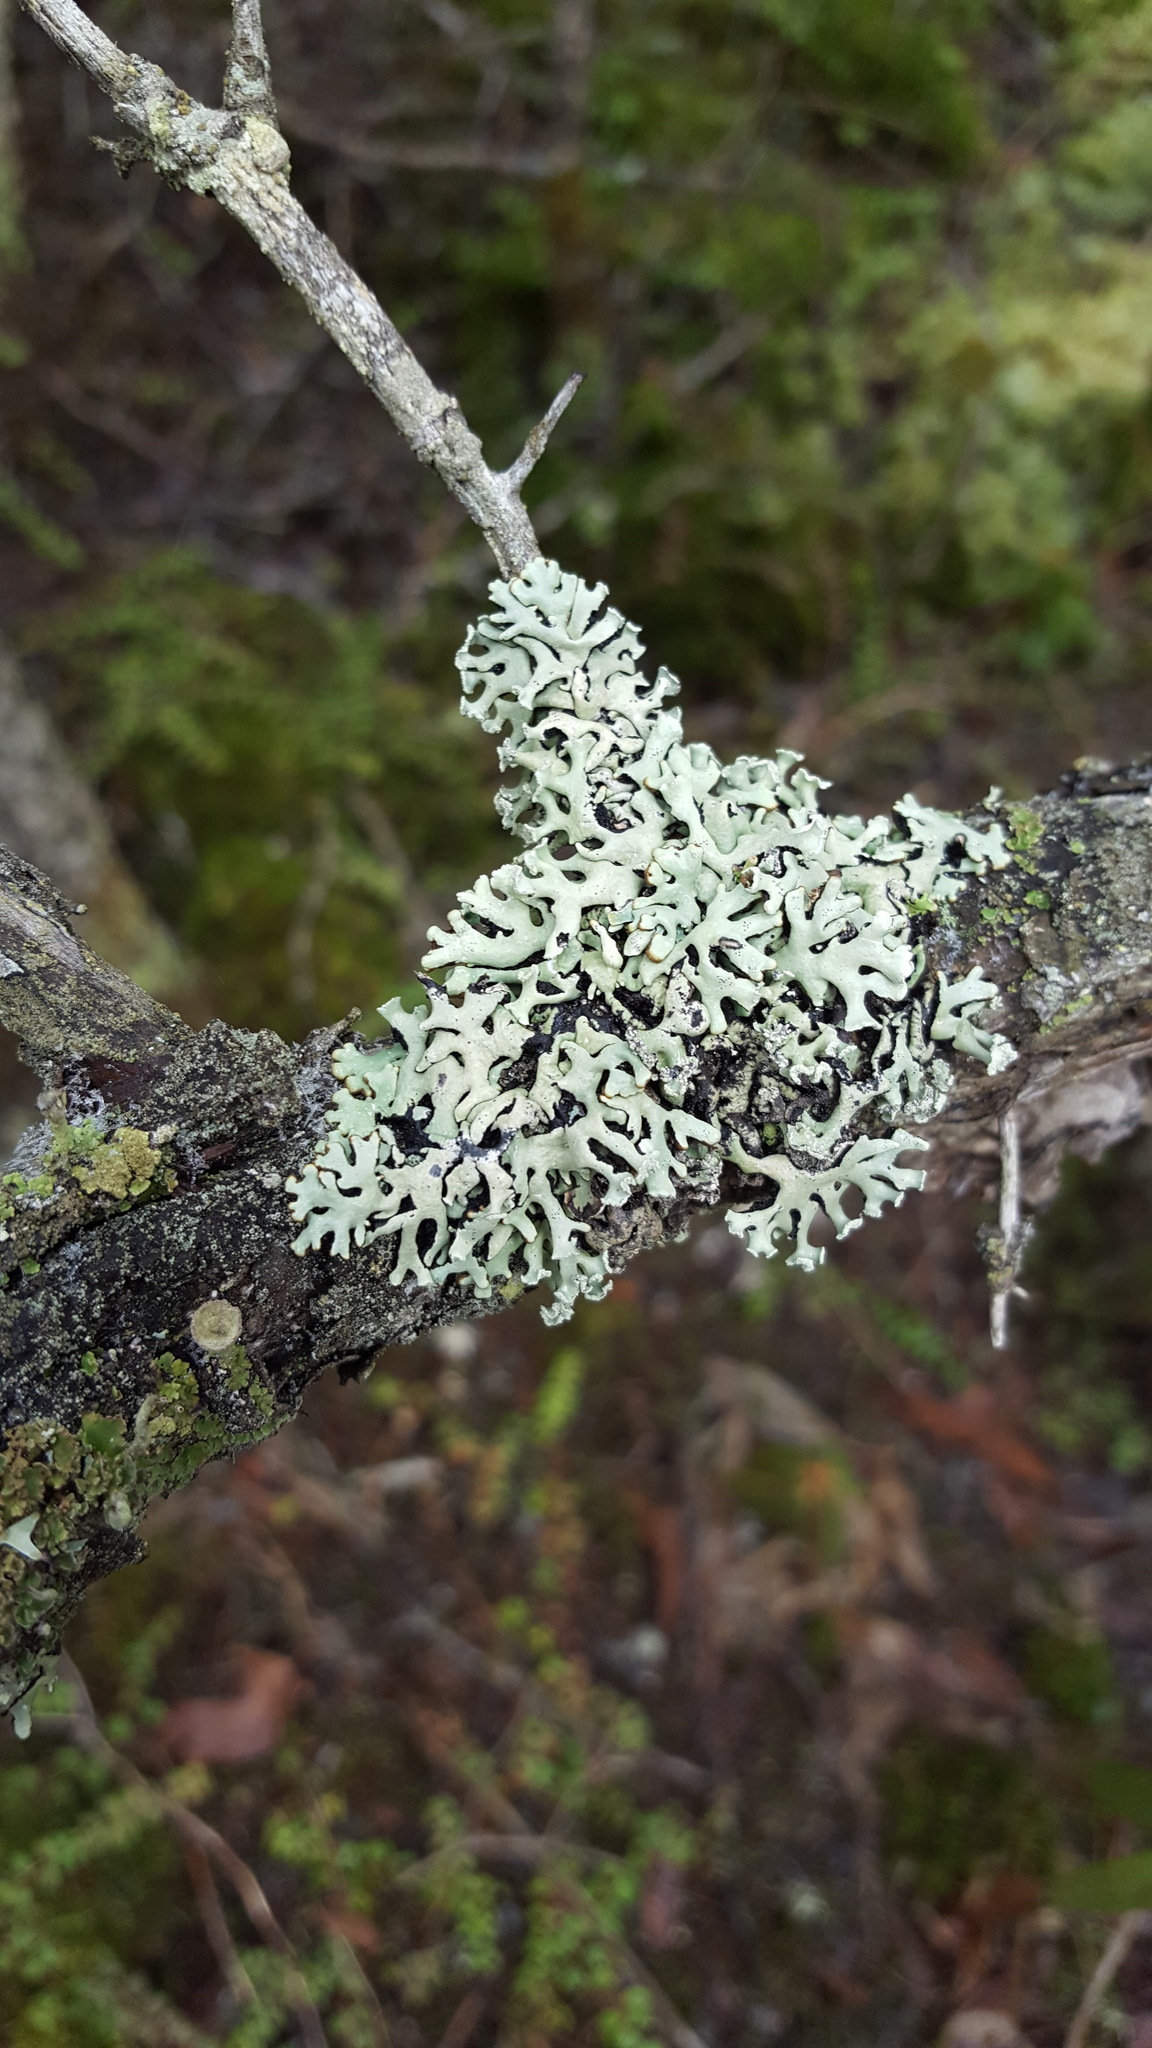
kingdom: Fungi
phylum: Ascomycota
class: Lecanoromycetes
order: Lecanorales
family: Parmeliaceae
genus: Hypogymnia
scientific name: Hypogymnia physodes
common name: Dark crottle
